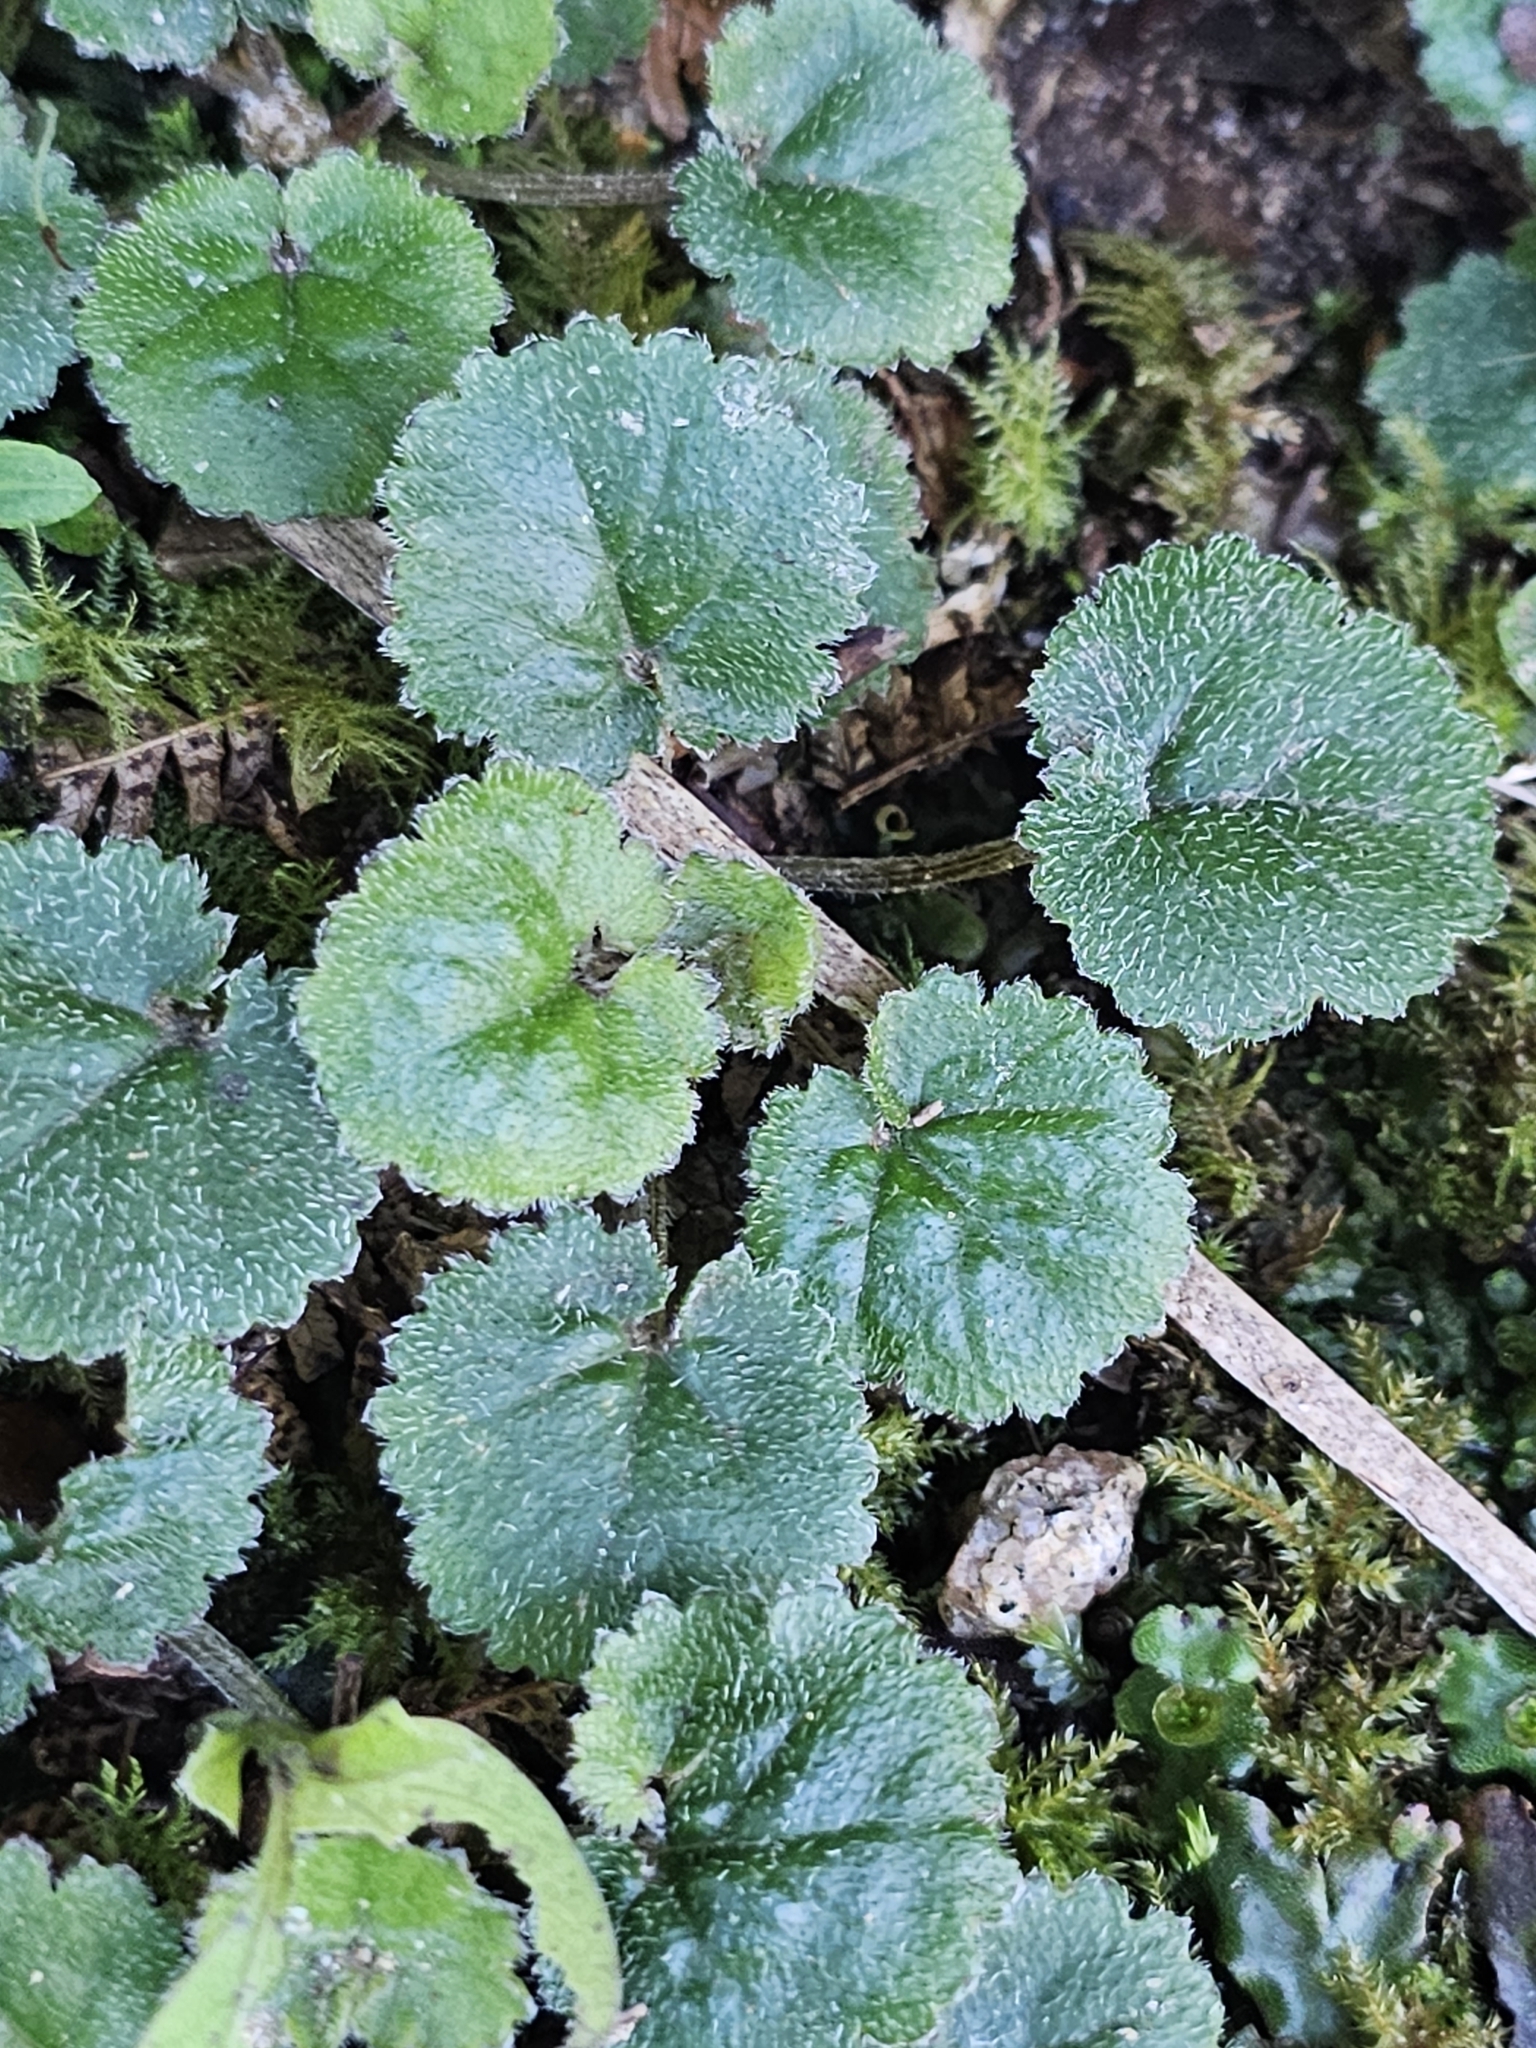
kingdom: Plantae
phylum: Tracheophyta
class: Magnoliopsida
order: Gunnerales
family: Gunneraceae
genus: Gunnera
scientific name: Gunnera monoica
